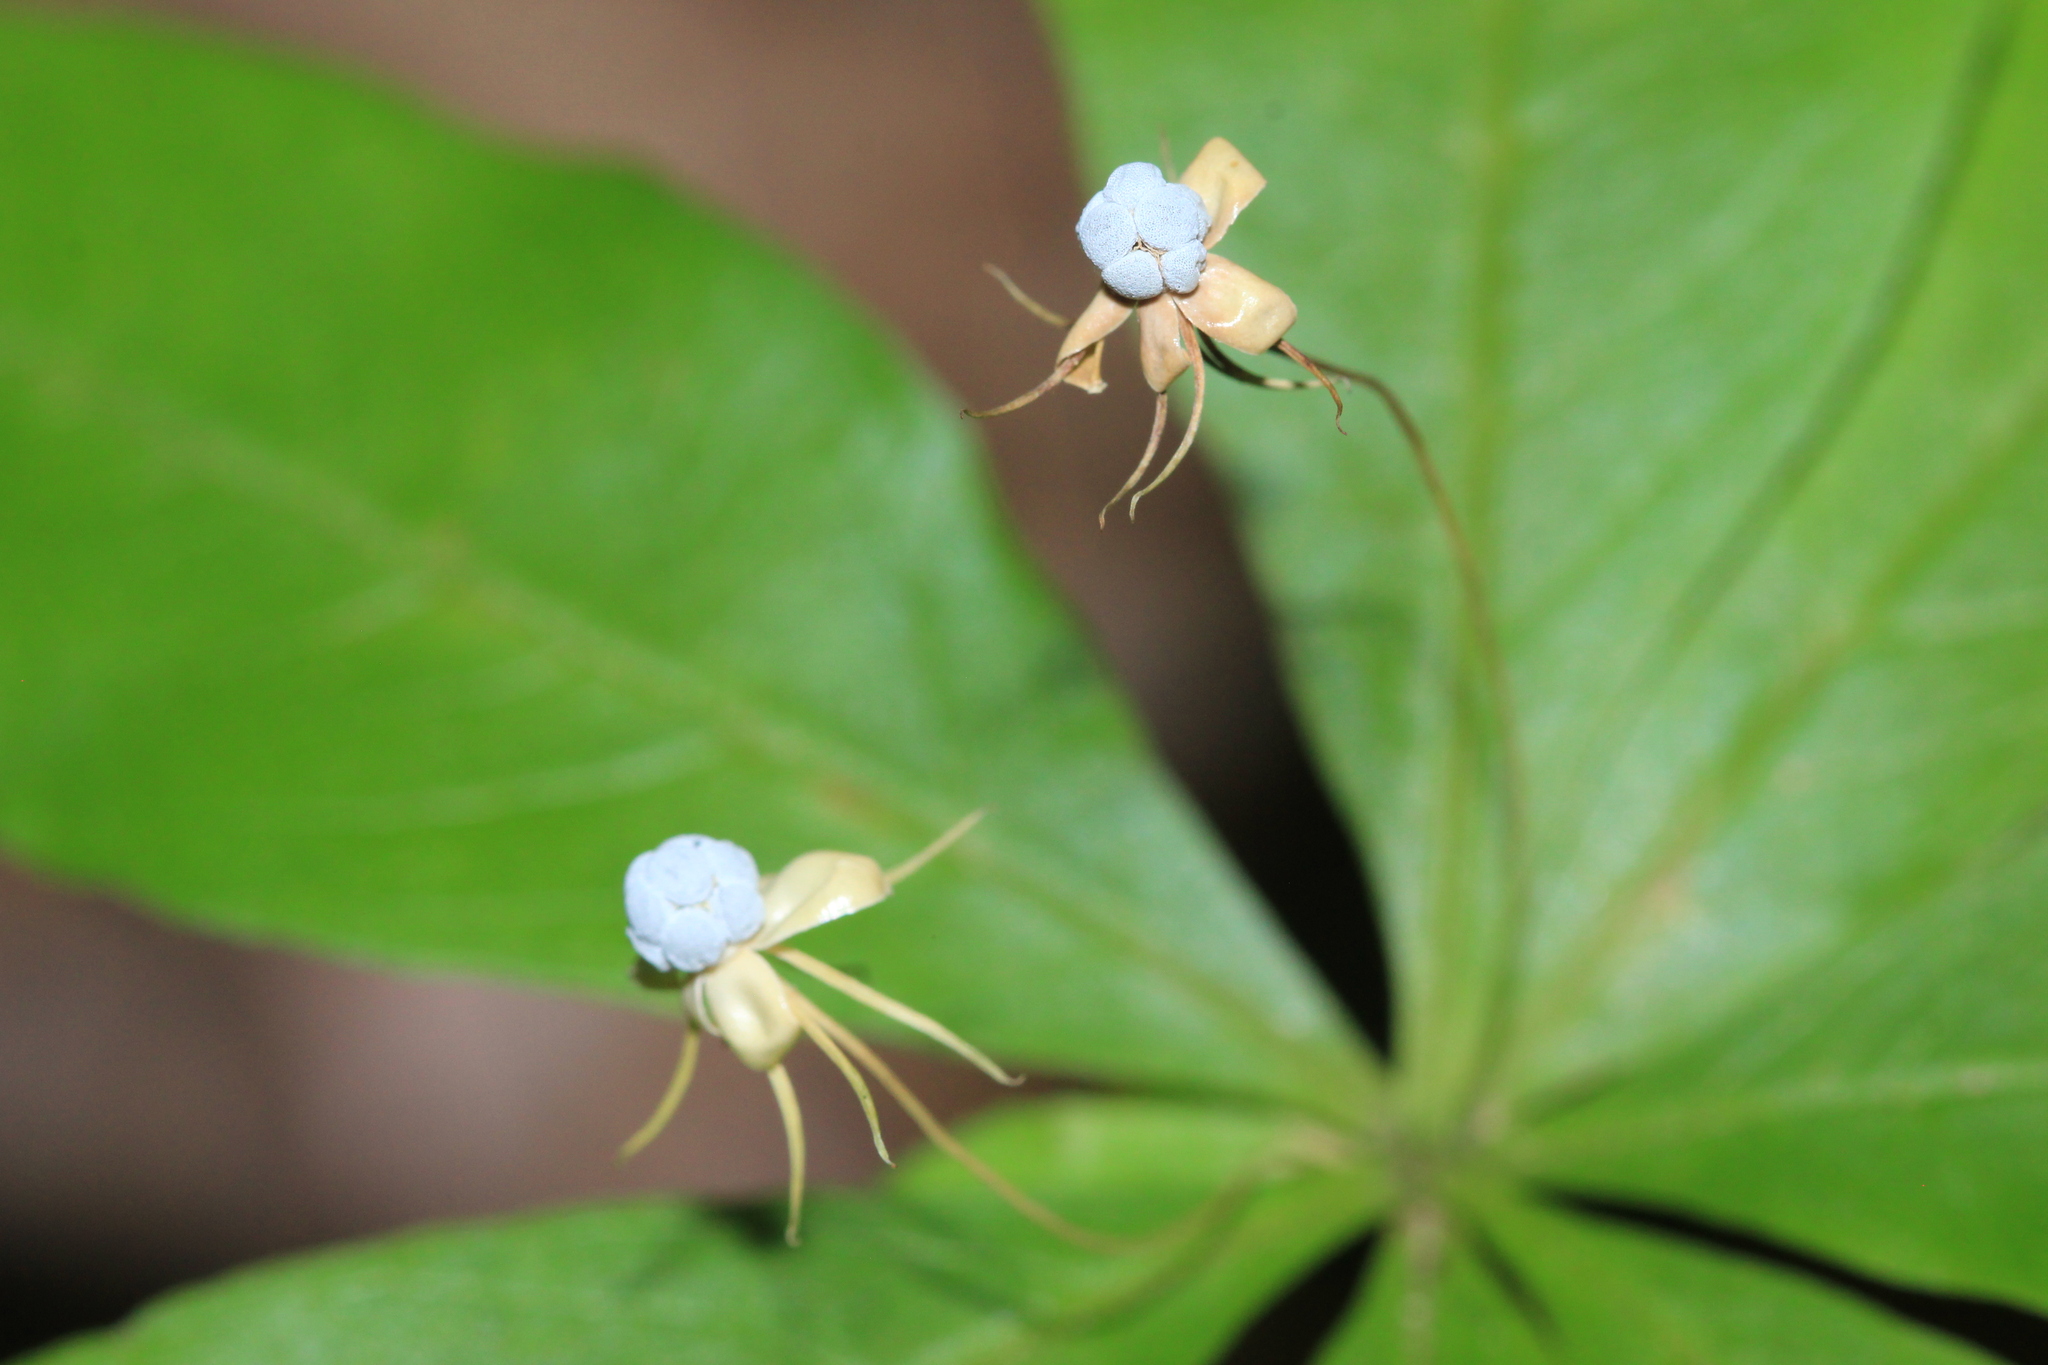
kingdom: Plantae
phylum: Tracheophyta
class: Magnoliopsida
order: Ericales
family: Primulaceae
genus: Lysimachia
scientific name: Lysimachia borealis
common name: American starflower
